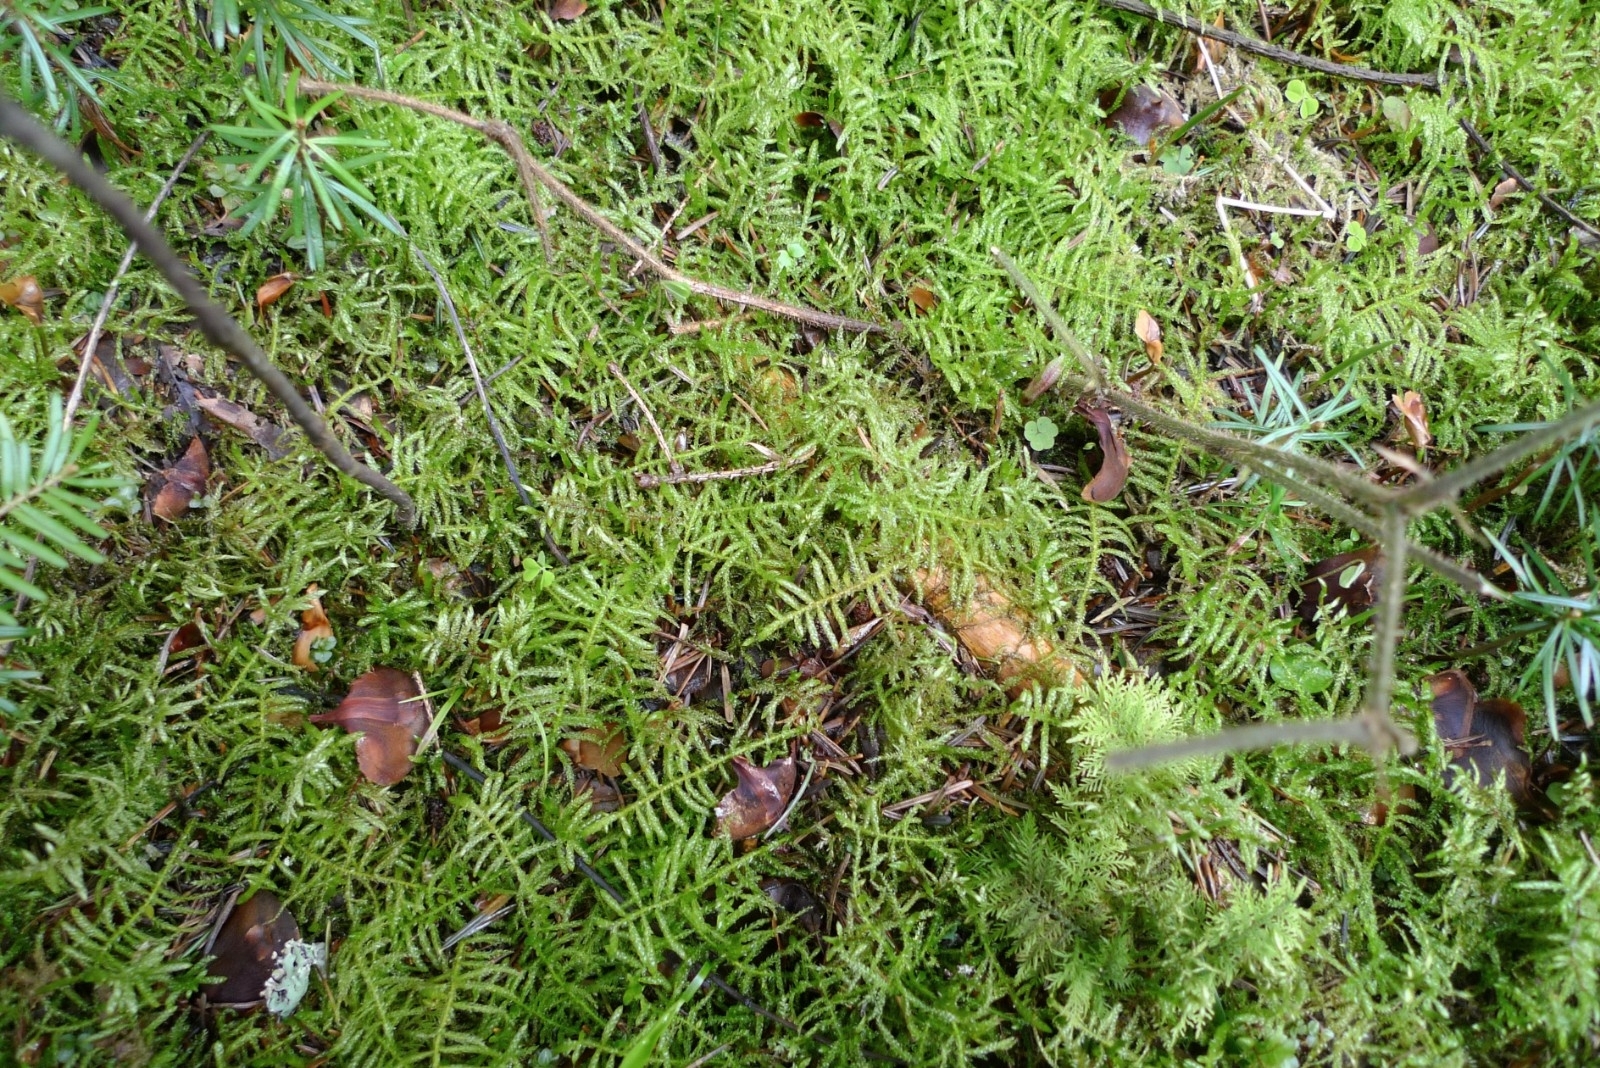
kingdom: Plantae
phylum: Bryophyta
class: Bryopsida
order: Hypnales
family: Brachytheciaceae
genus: Pseudoscleropodium
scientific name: Pseudoscleropodium purum
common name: Neat feather-moss
